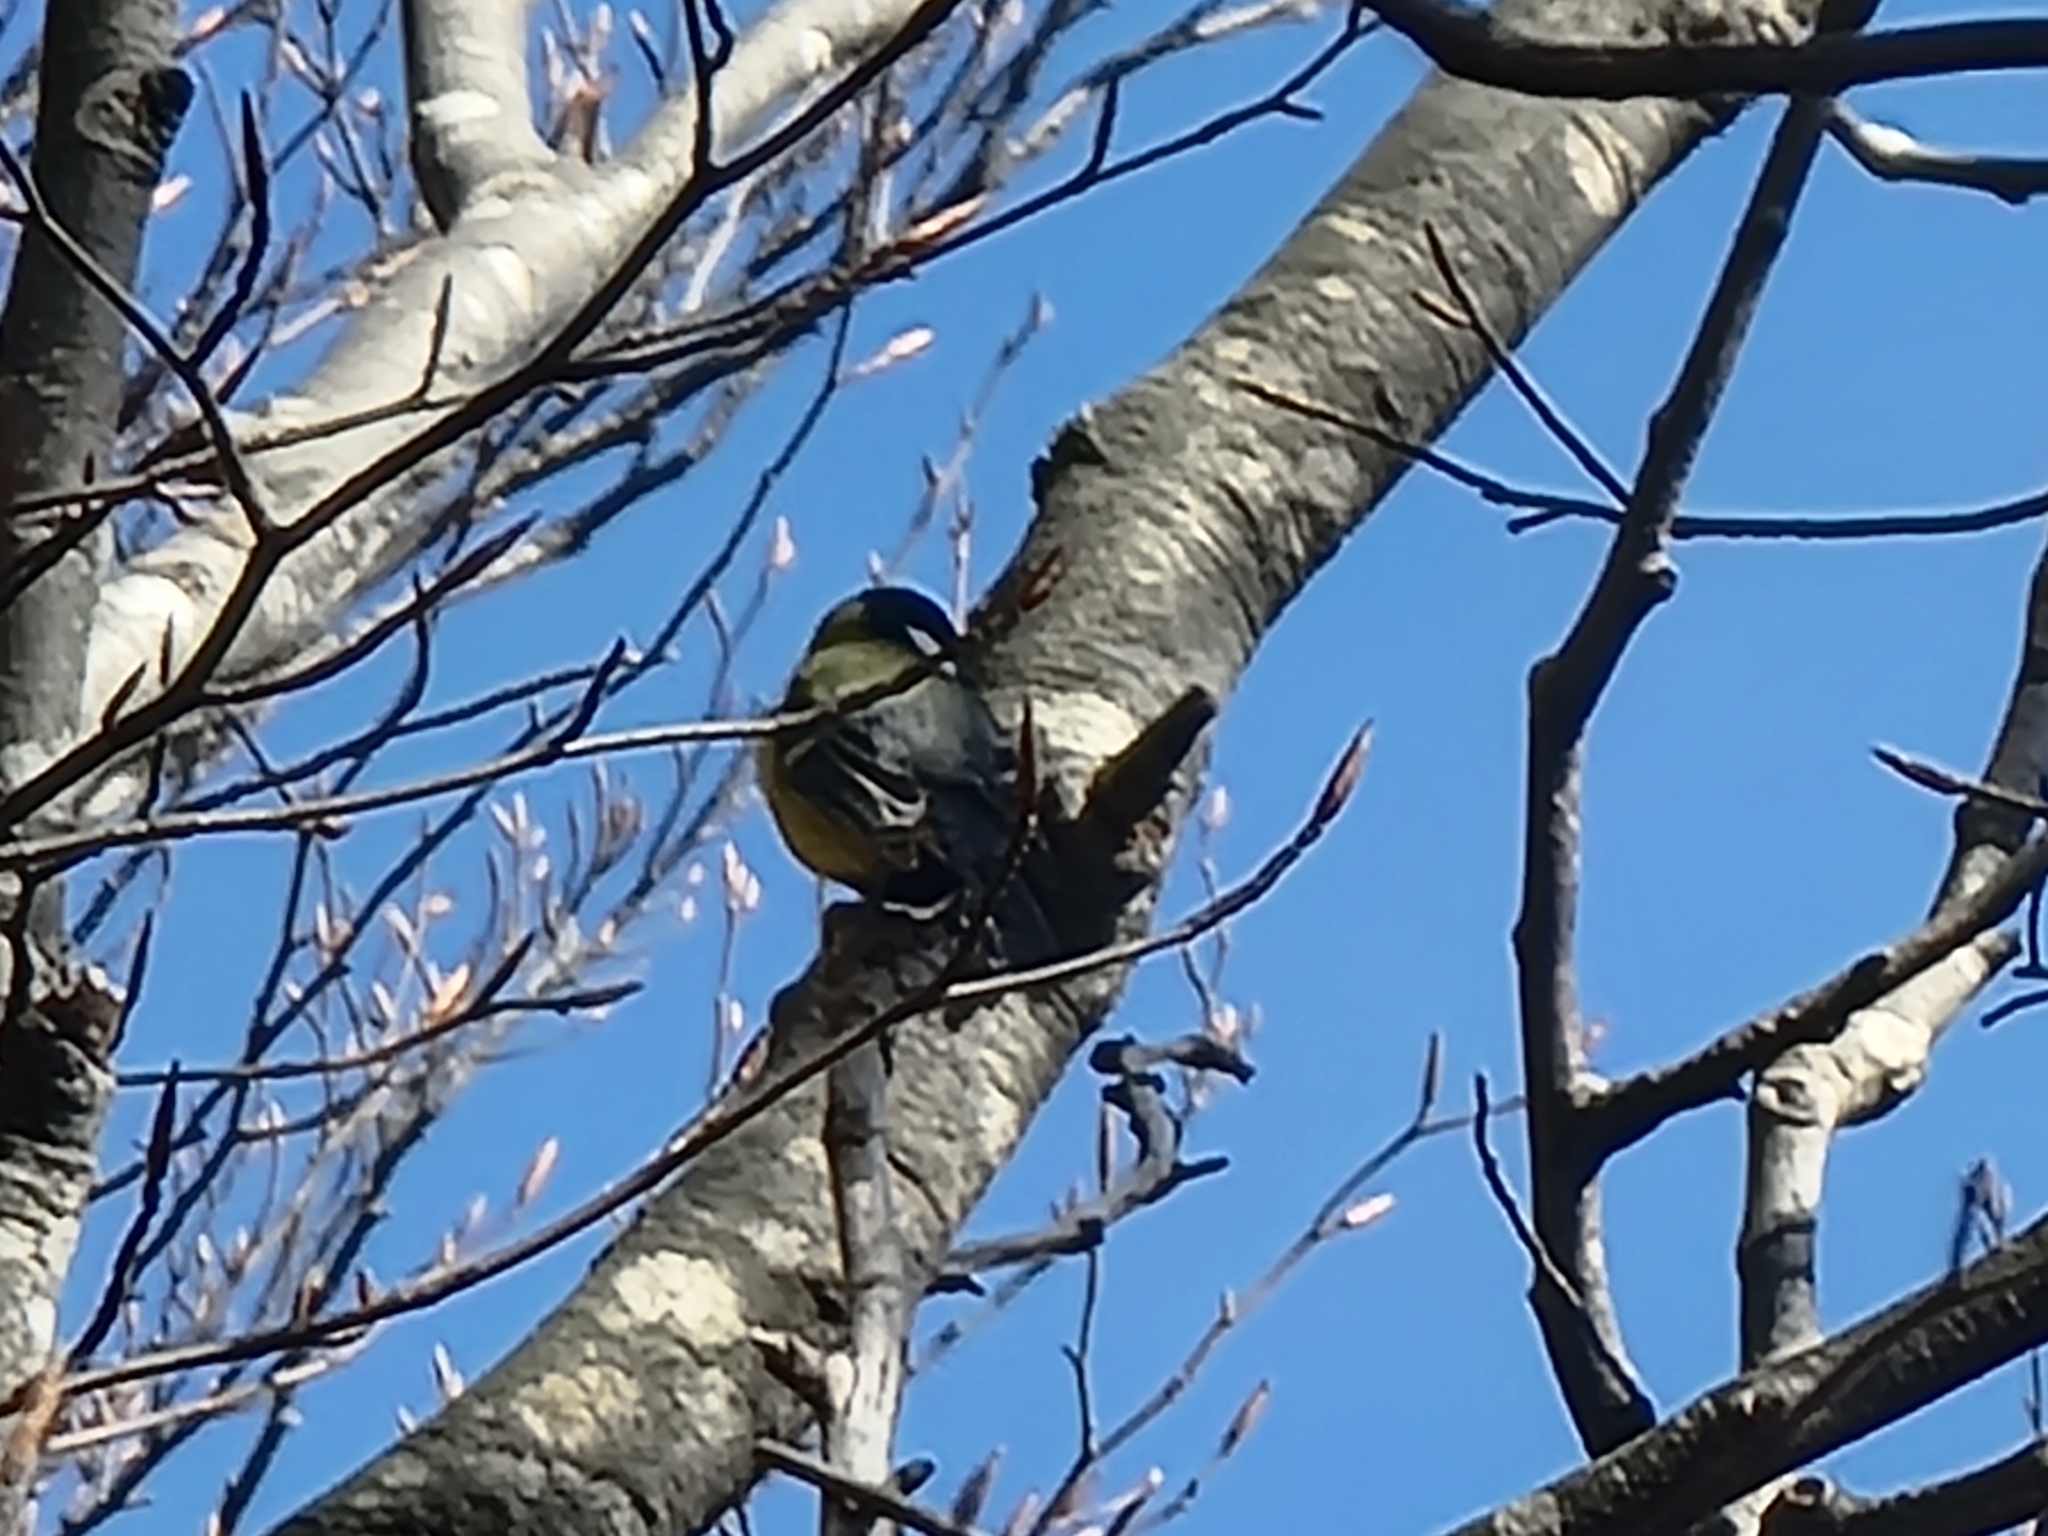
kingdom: Animalia
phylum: Chordata
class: Aves
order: Passeriformes
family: Paridae
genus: Parus
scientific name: Parus major
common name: Great tit
